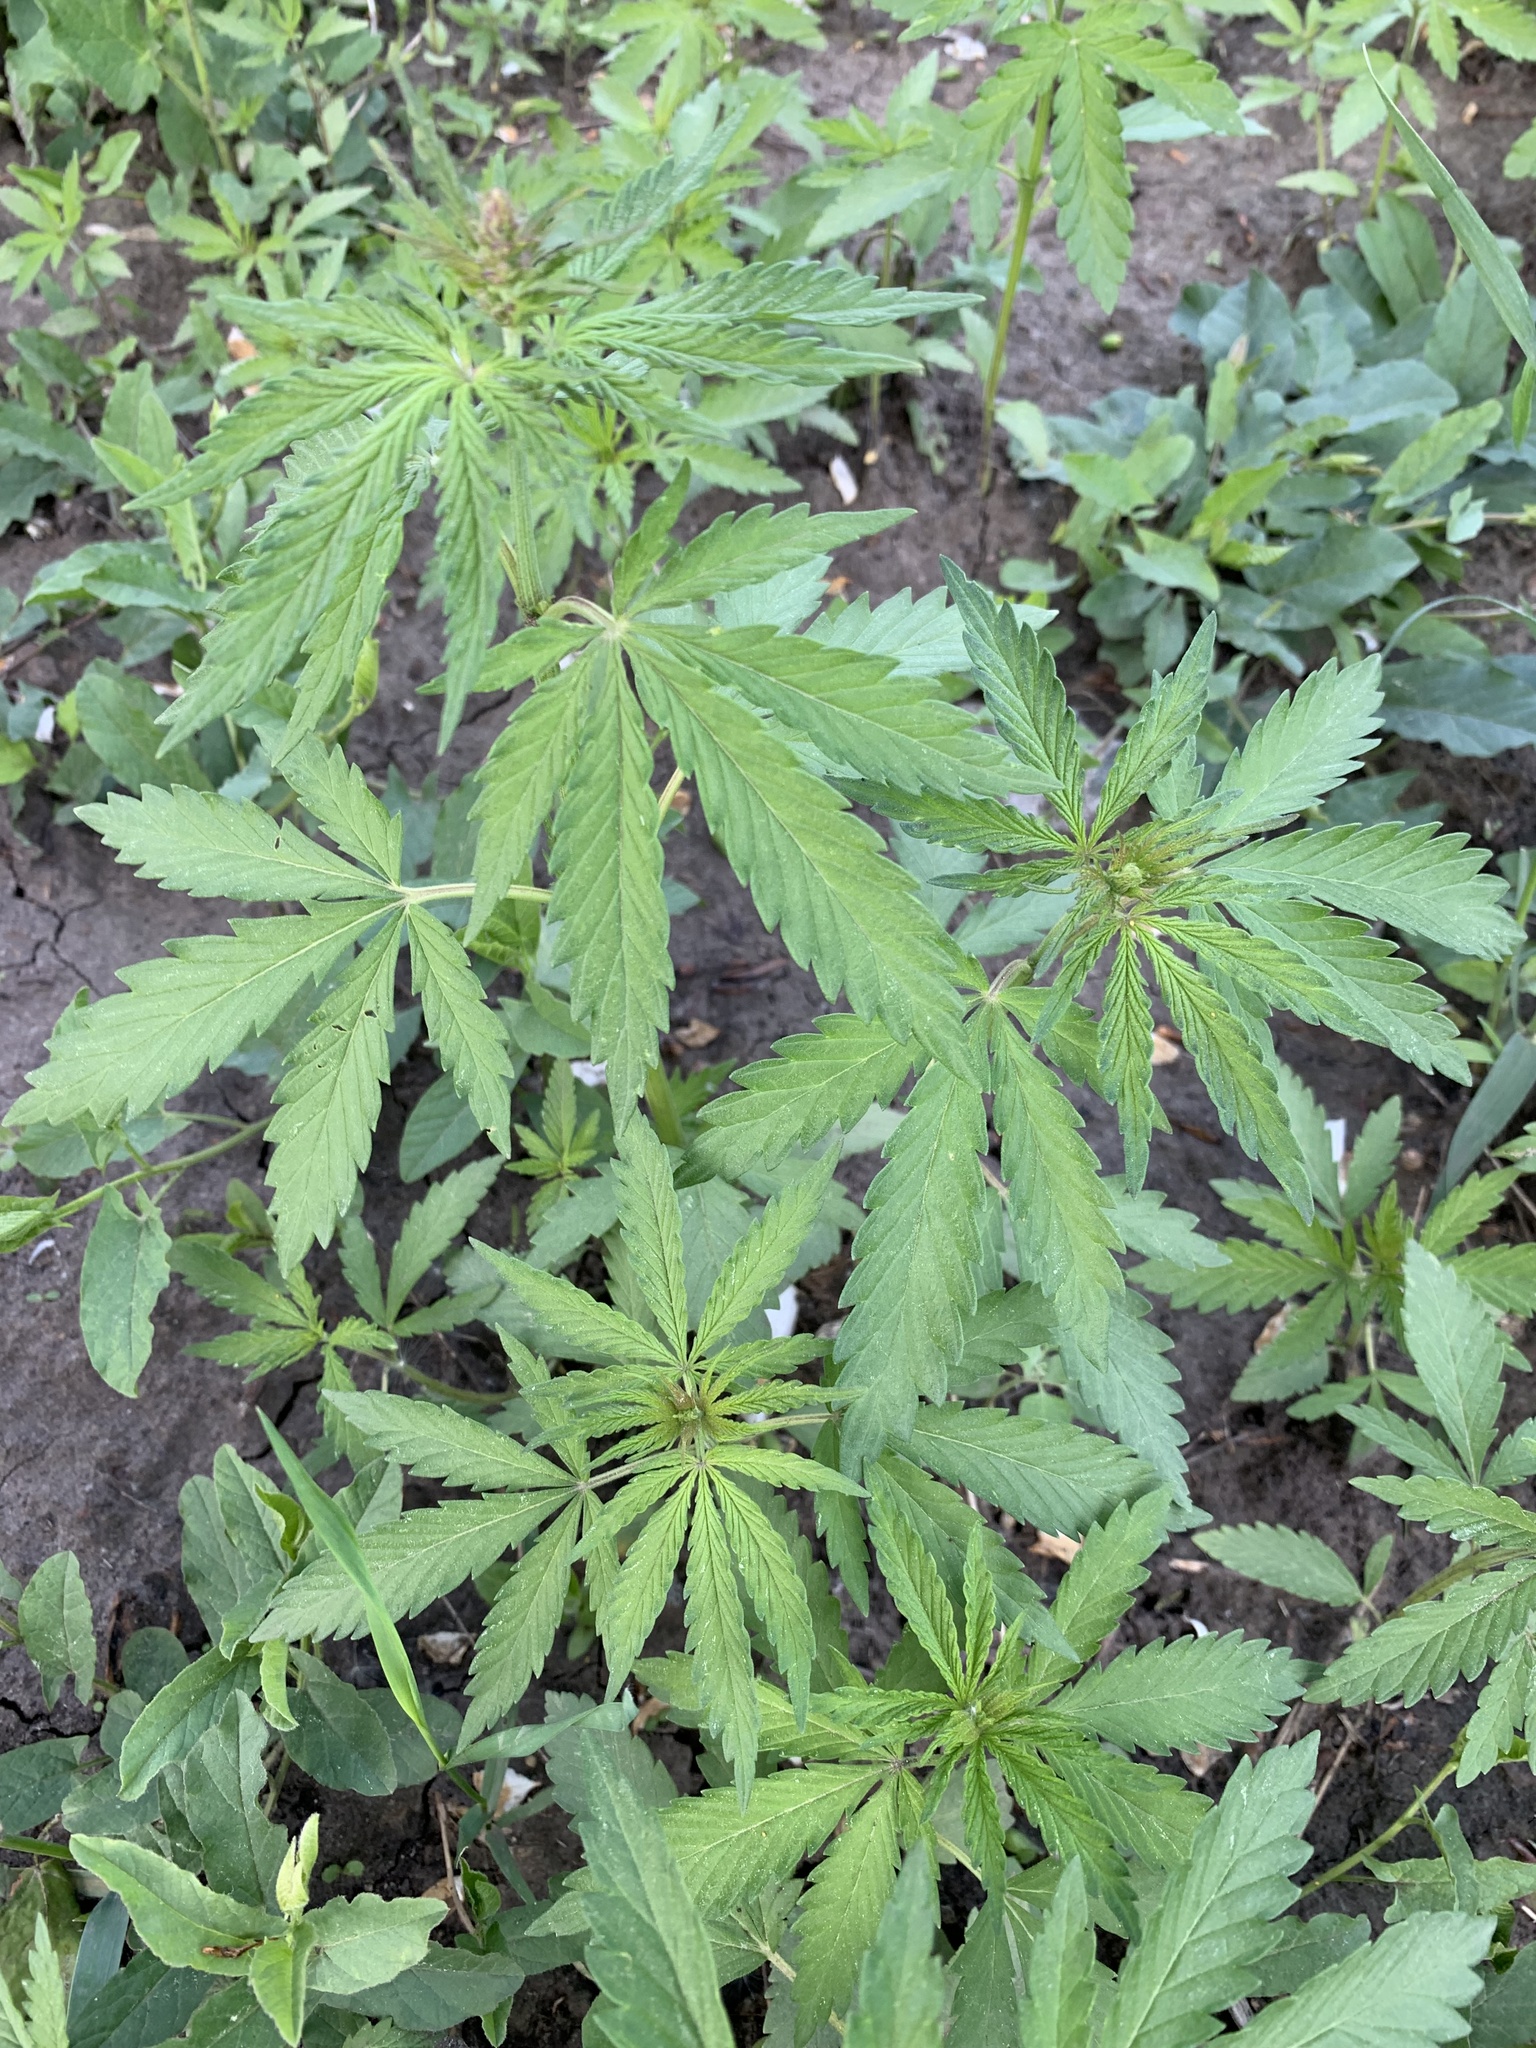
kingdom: Plantae
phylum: Tracheophyta
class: Magnoliopsida
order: Rosales
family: Cannabaceae
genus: Cannabis
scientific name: Cannabis sativa
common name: Hemp
